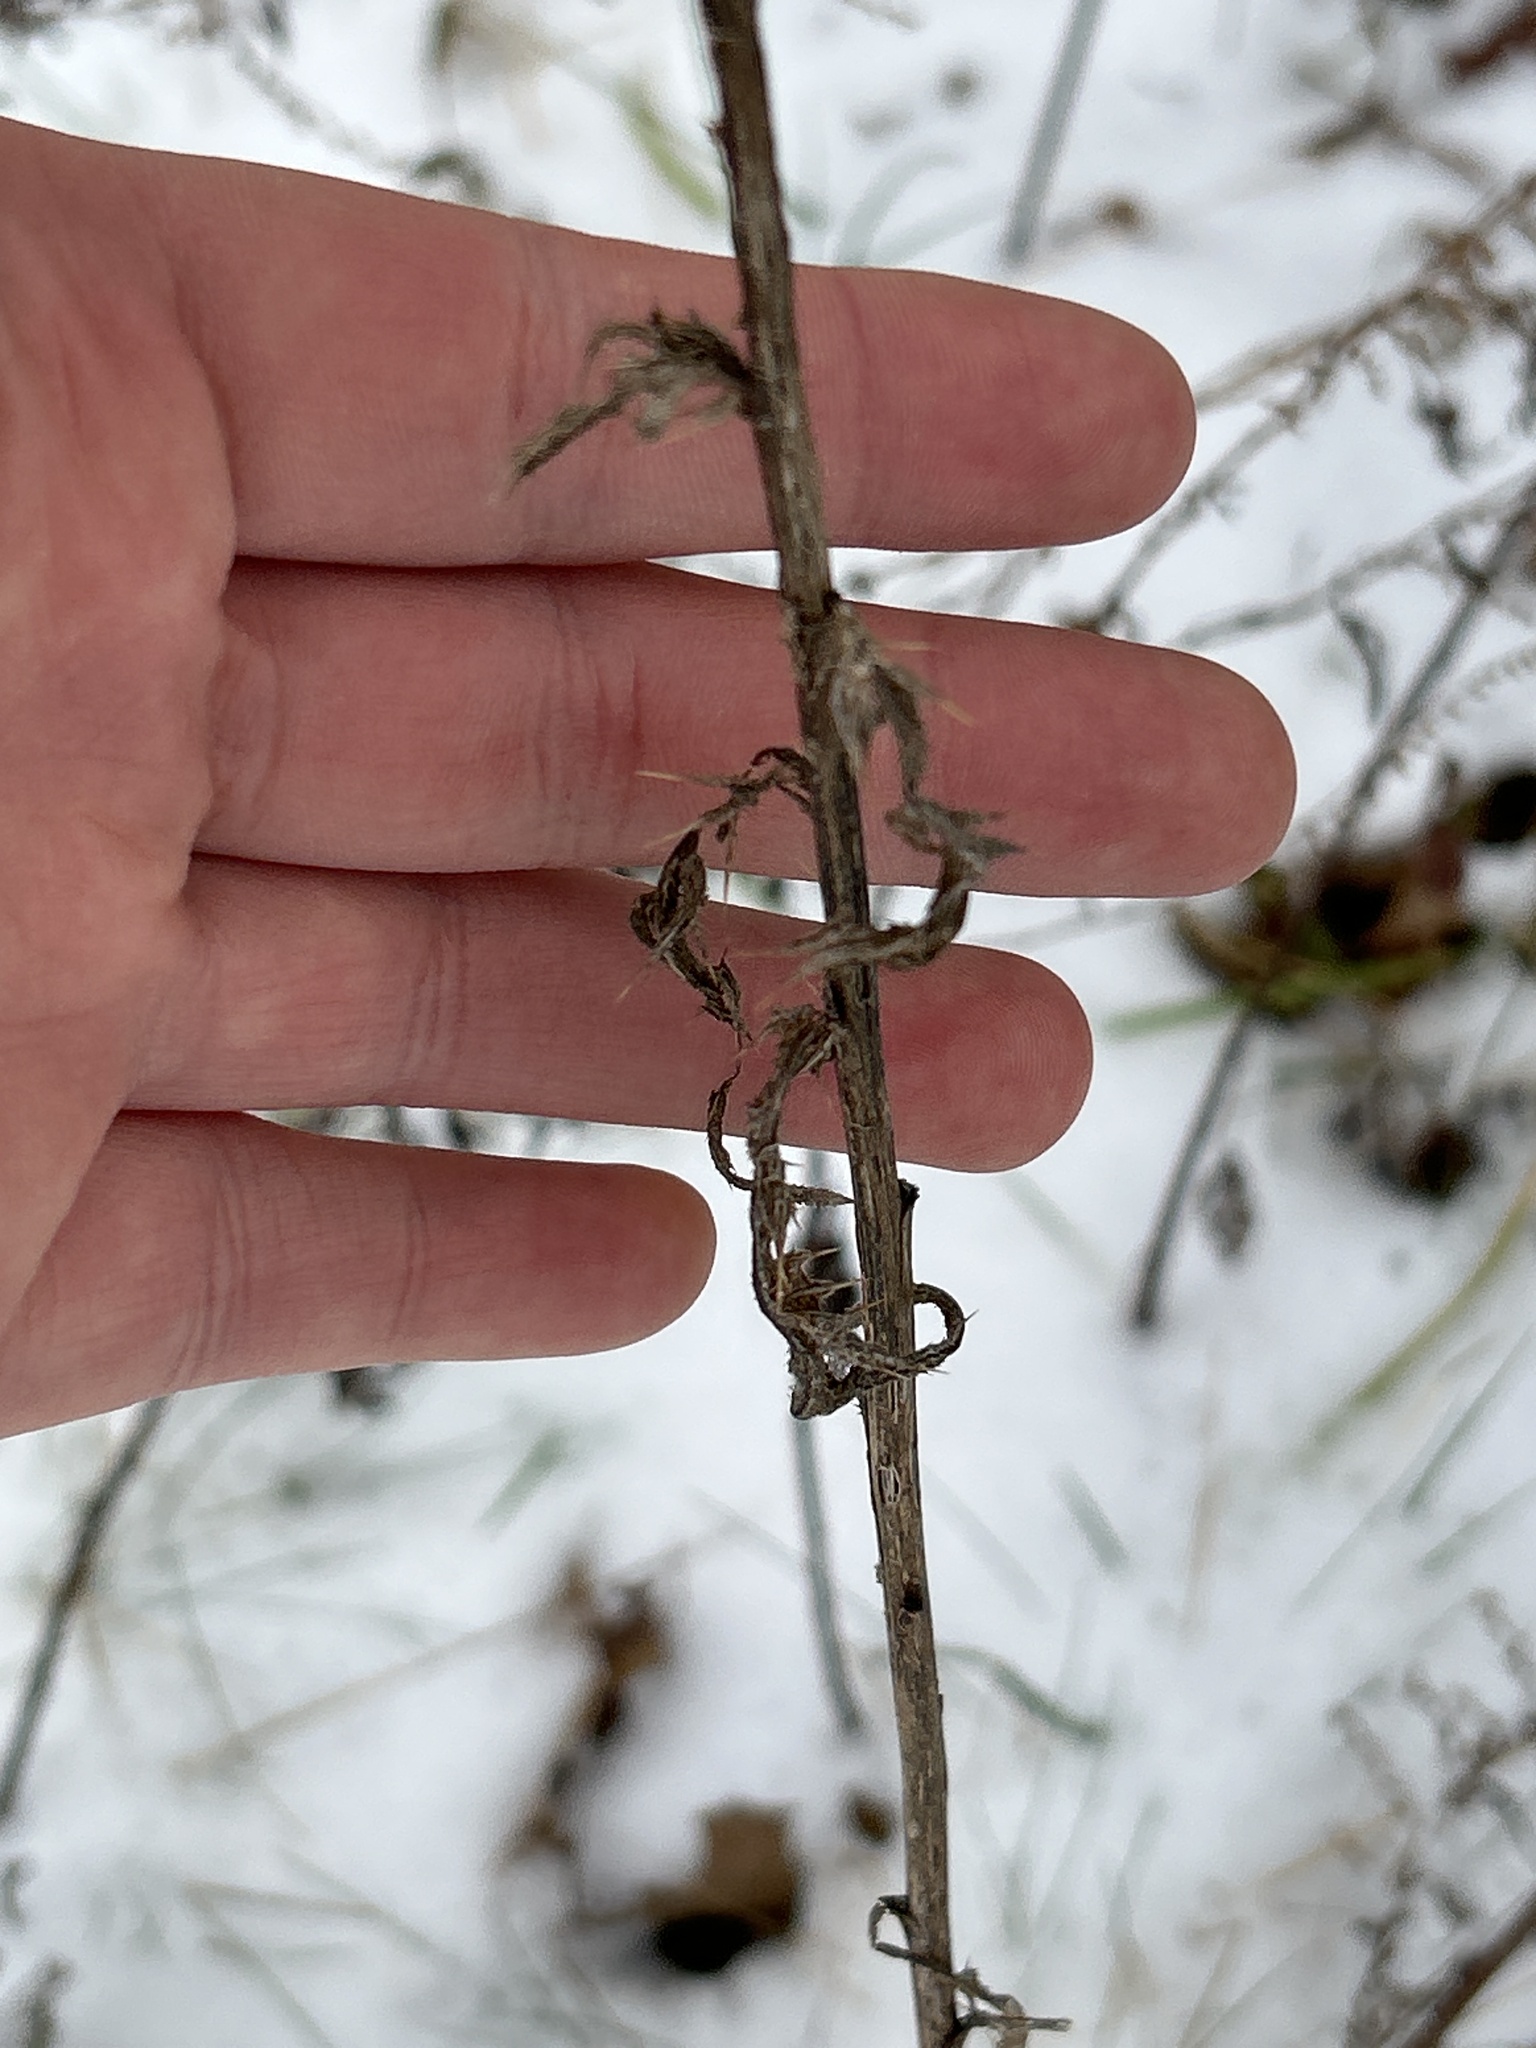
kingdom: Plantae
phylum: Tracheophyta
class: Magnoliopsida
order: Asterales
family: Asteraceae
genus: Cirsium
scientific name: Cirsium vulgare
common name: Bull thistle
